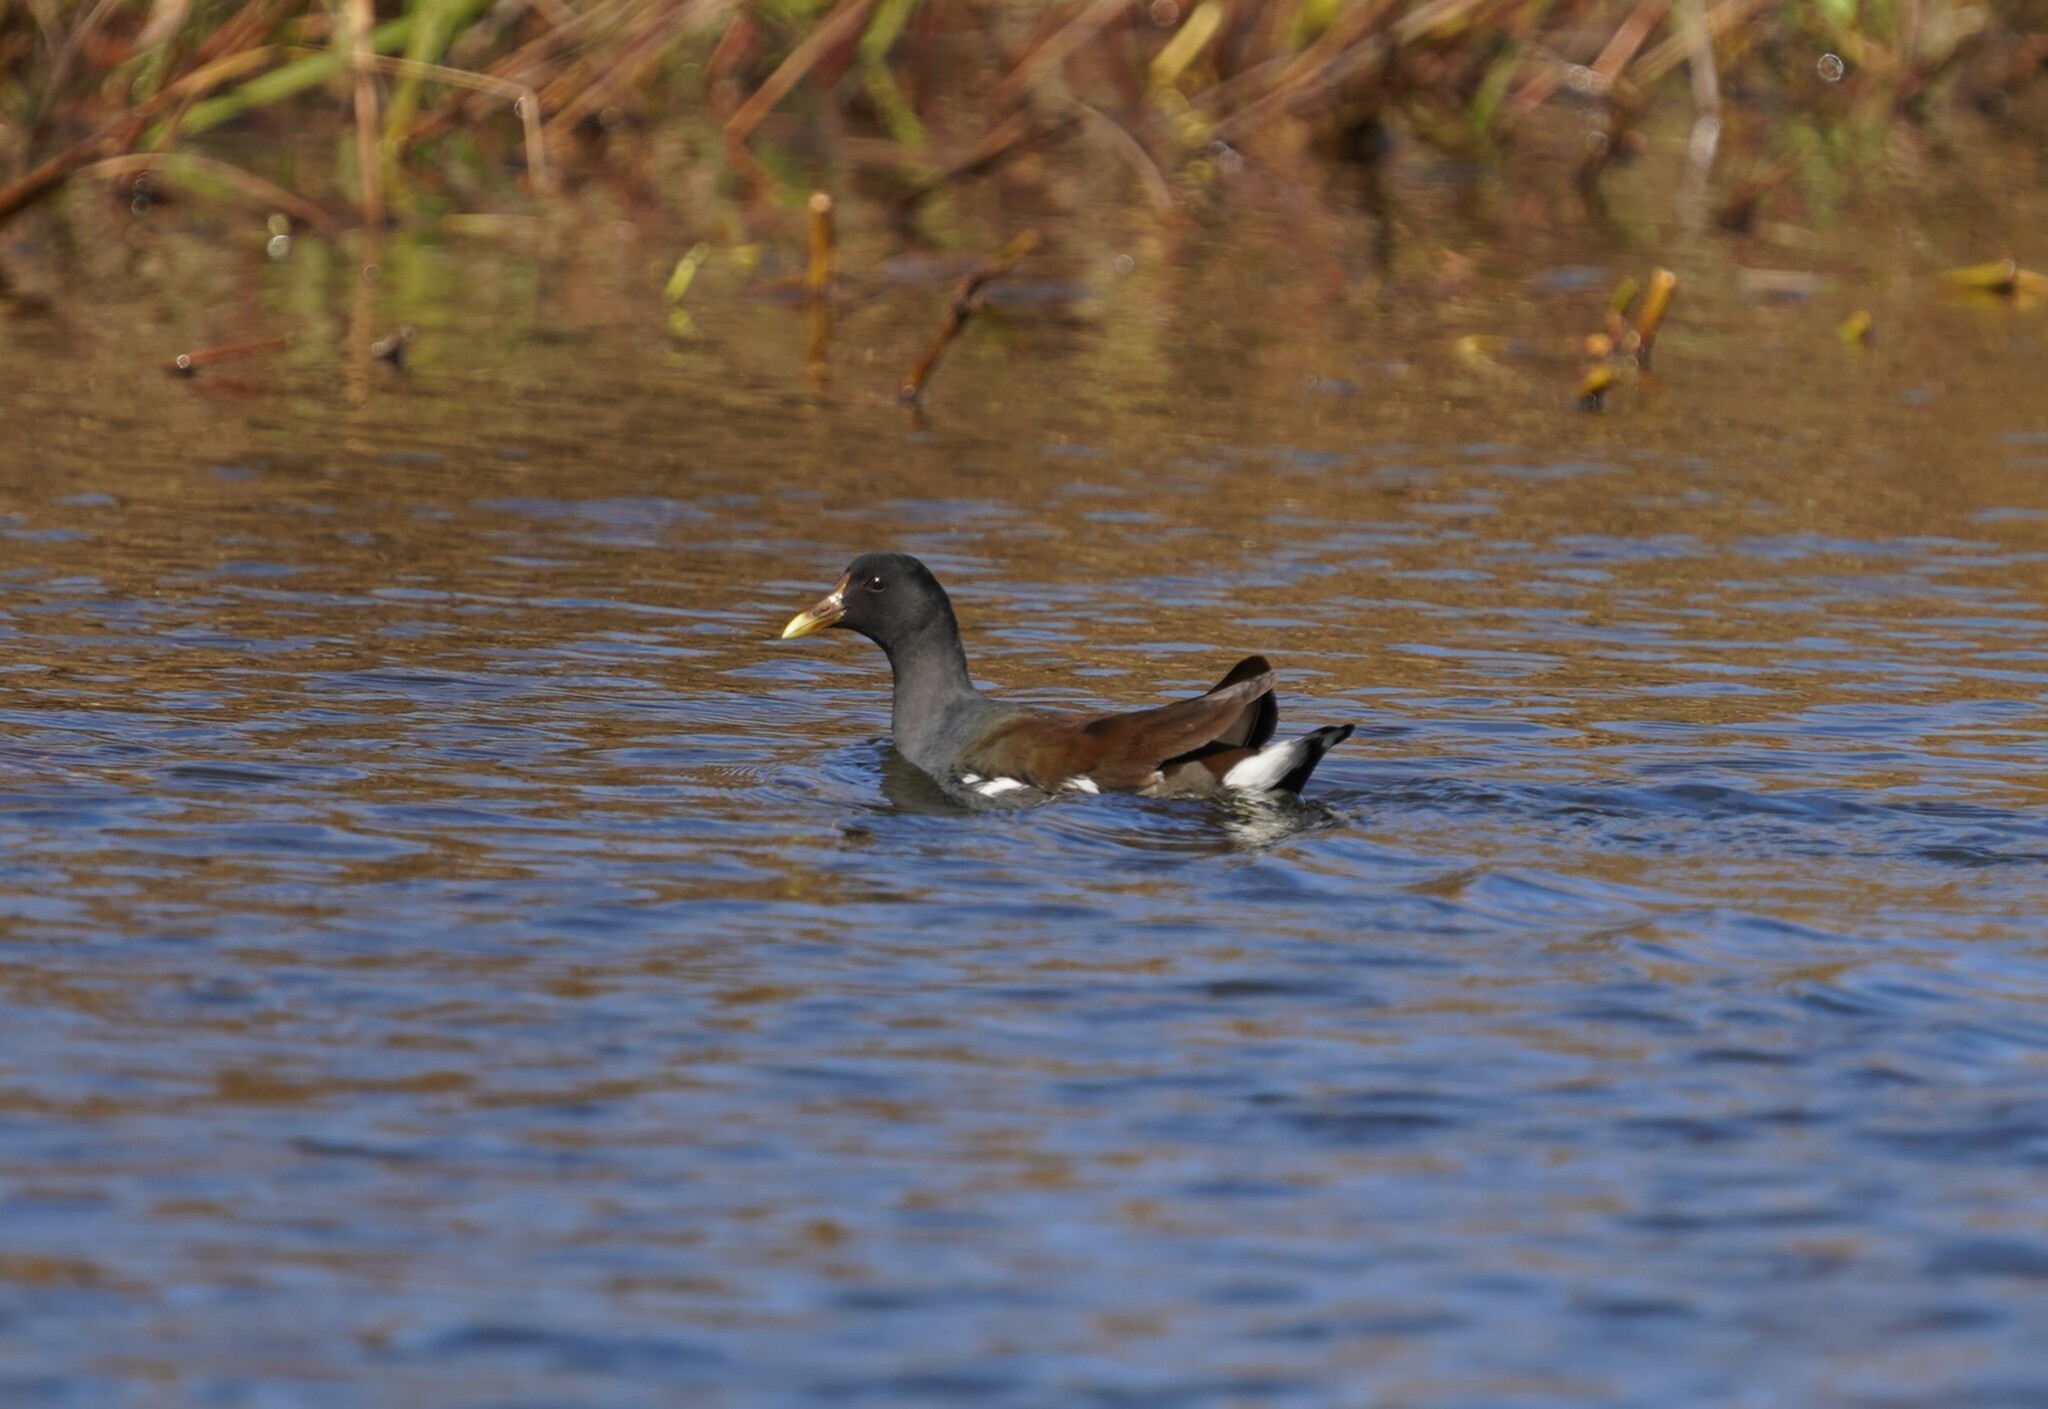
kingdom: Animalia
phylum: Chordata
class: Aves
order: Gruiformes
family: Rallidae
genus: Gallinula
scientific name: Gallinula chloropus
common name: Common moorhen
